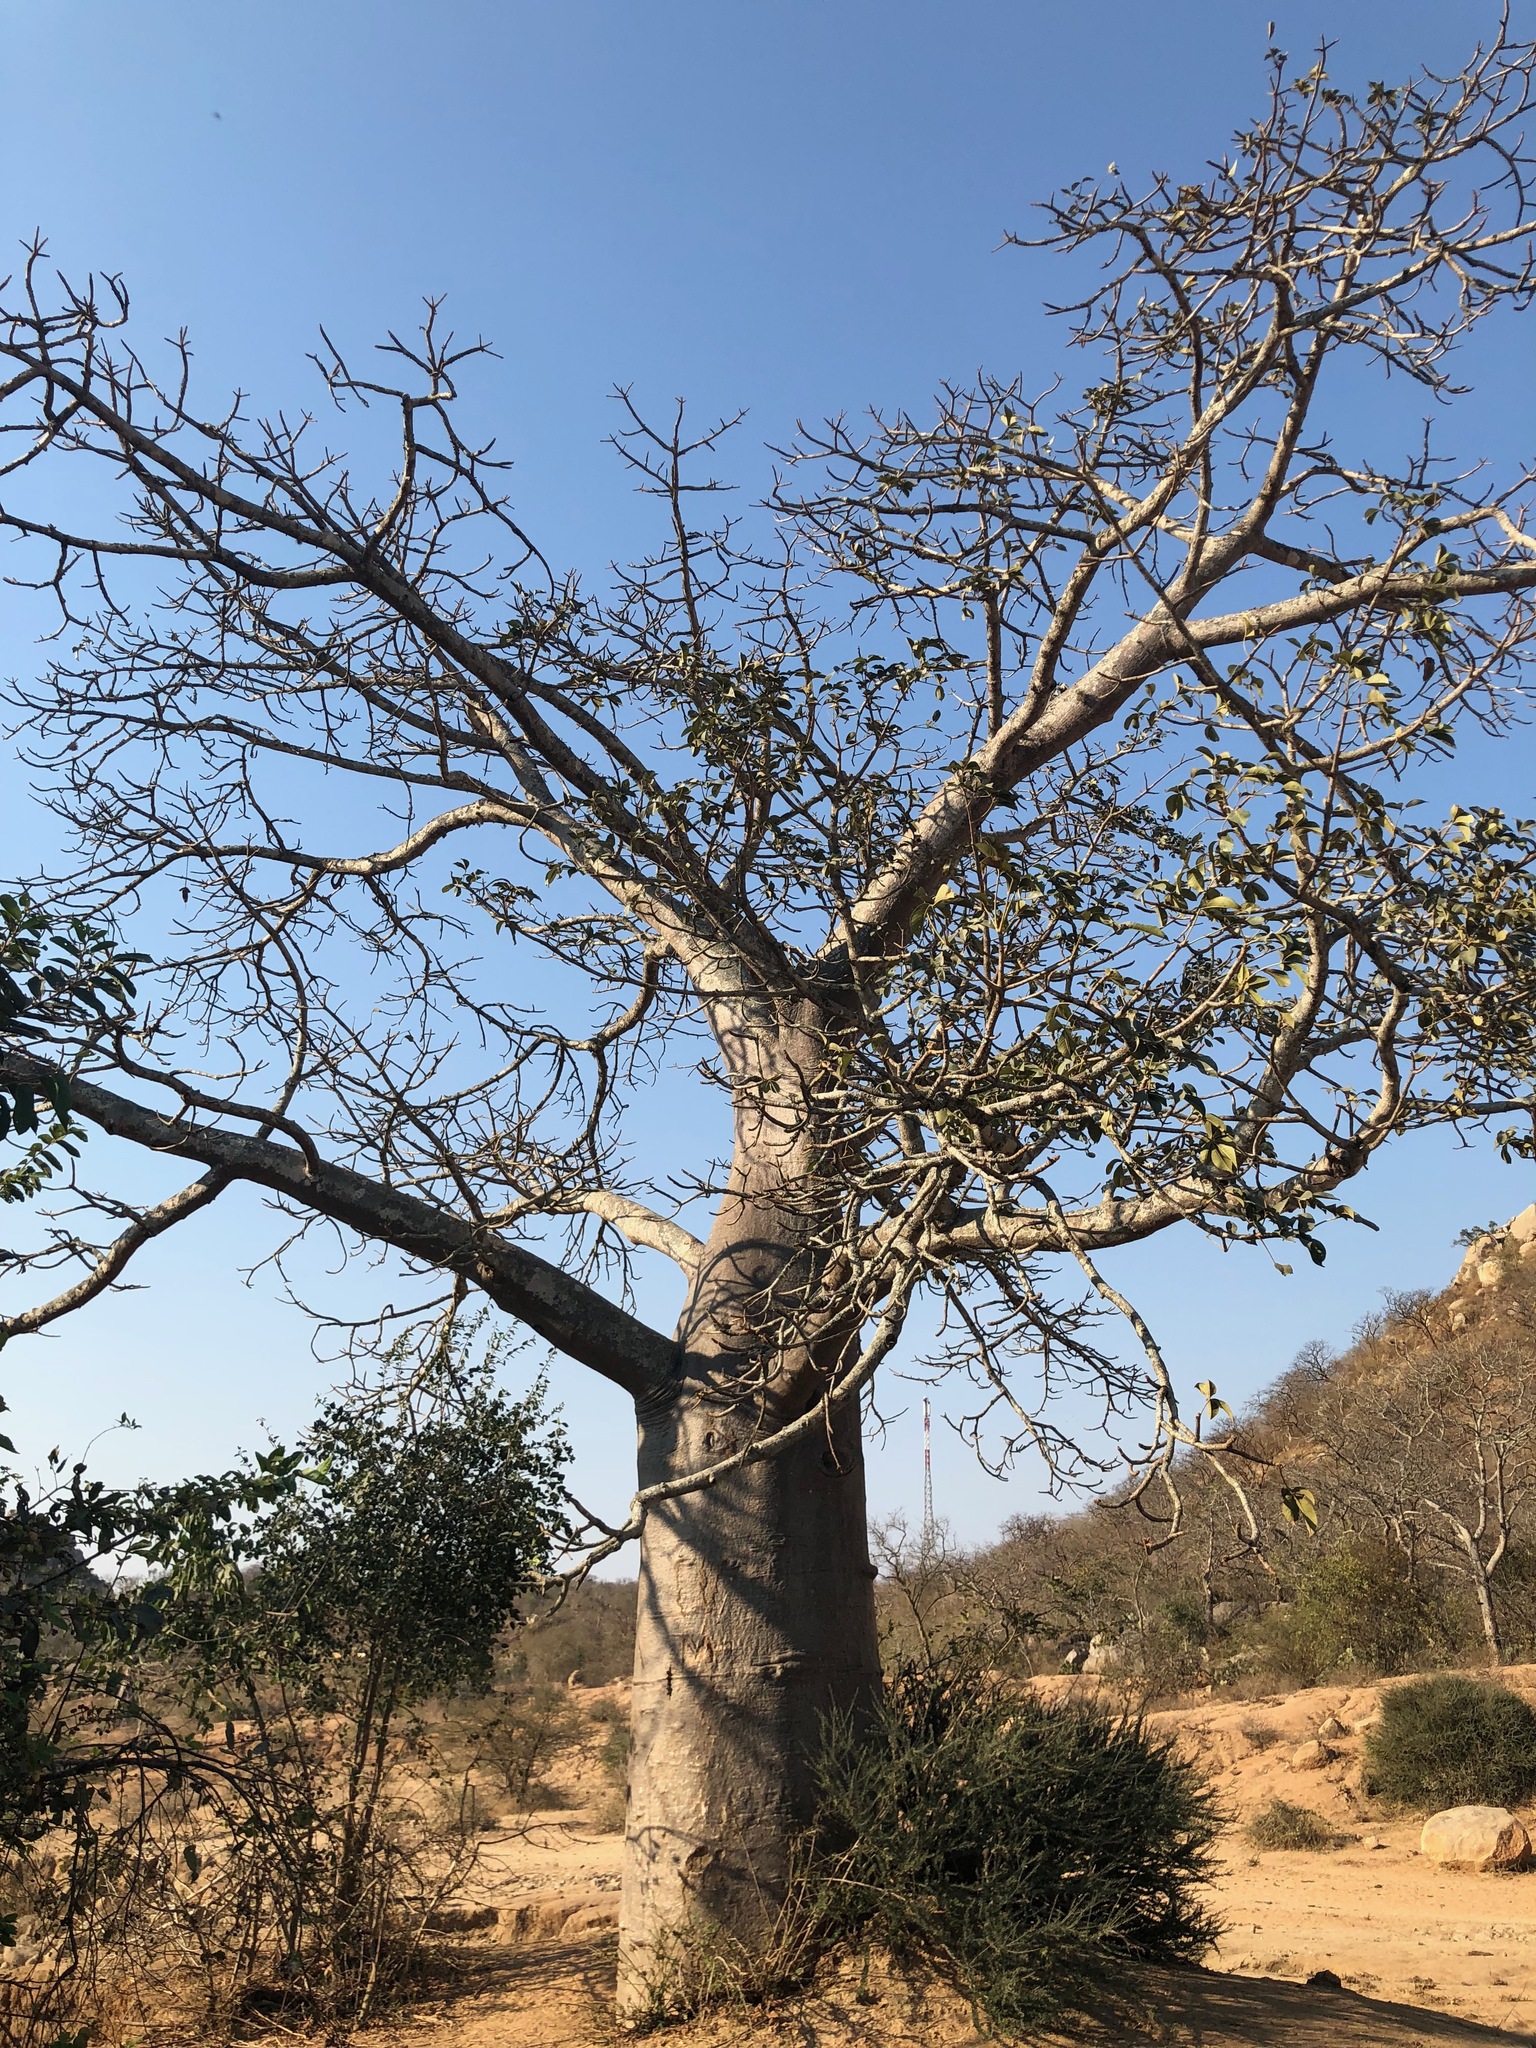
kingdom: Plantae
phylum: Tracheophyta
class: Magnoliopsida
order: Malvales
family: Malvaceae
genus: Adansonia
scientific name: Adansonia digitata
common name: Dead-rat-tree
